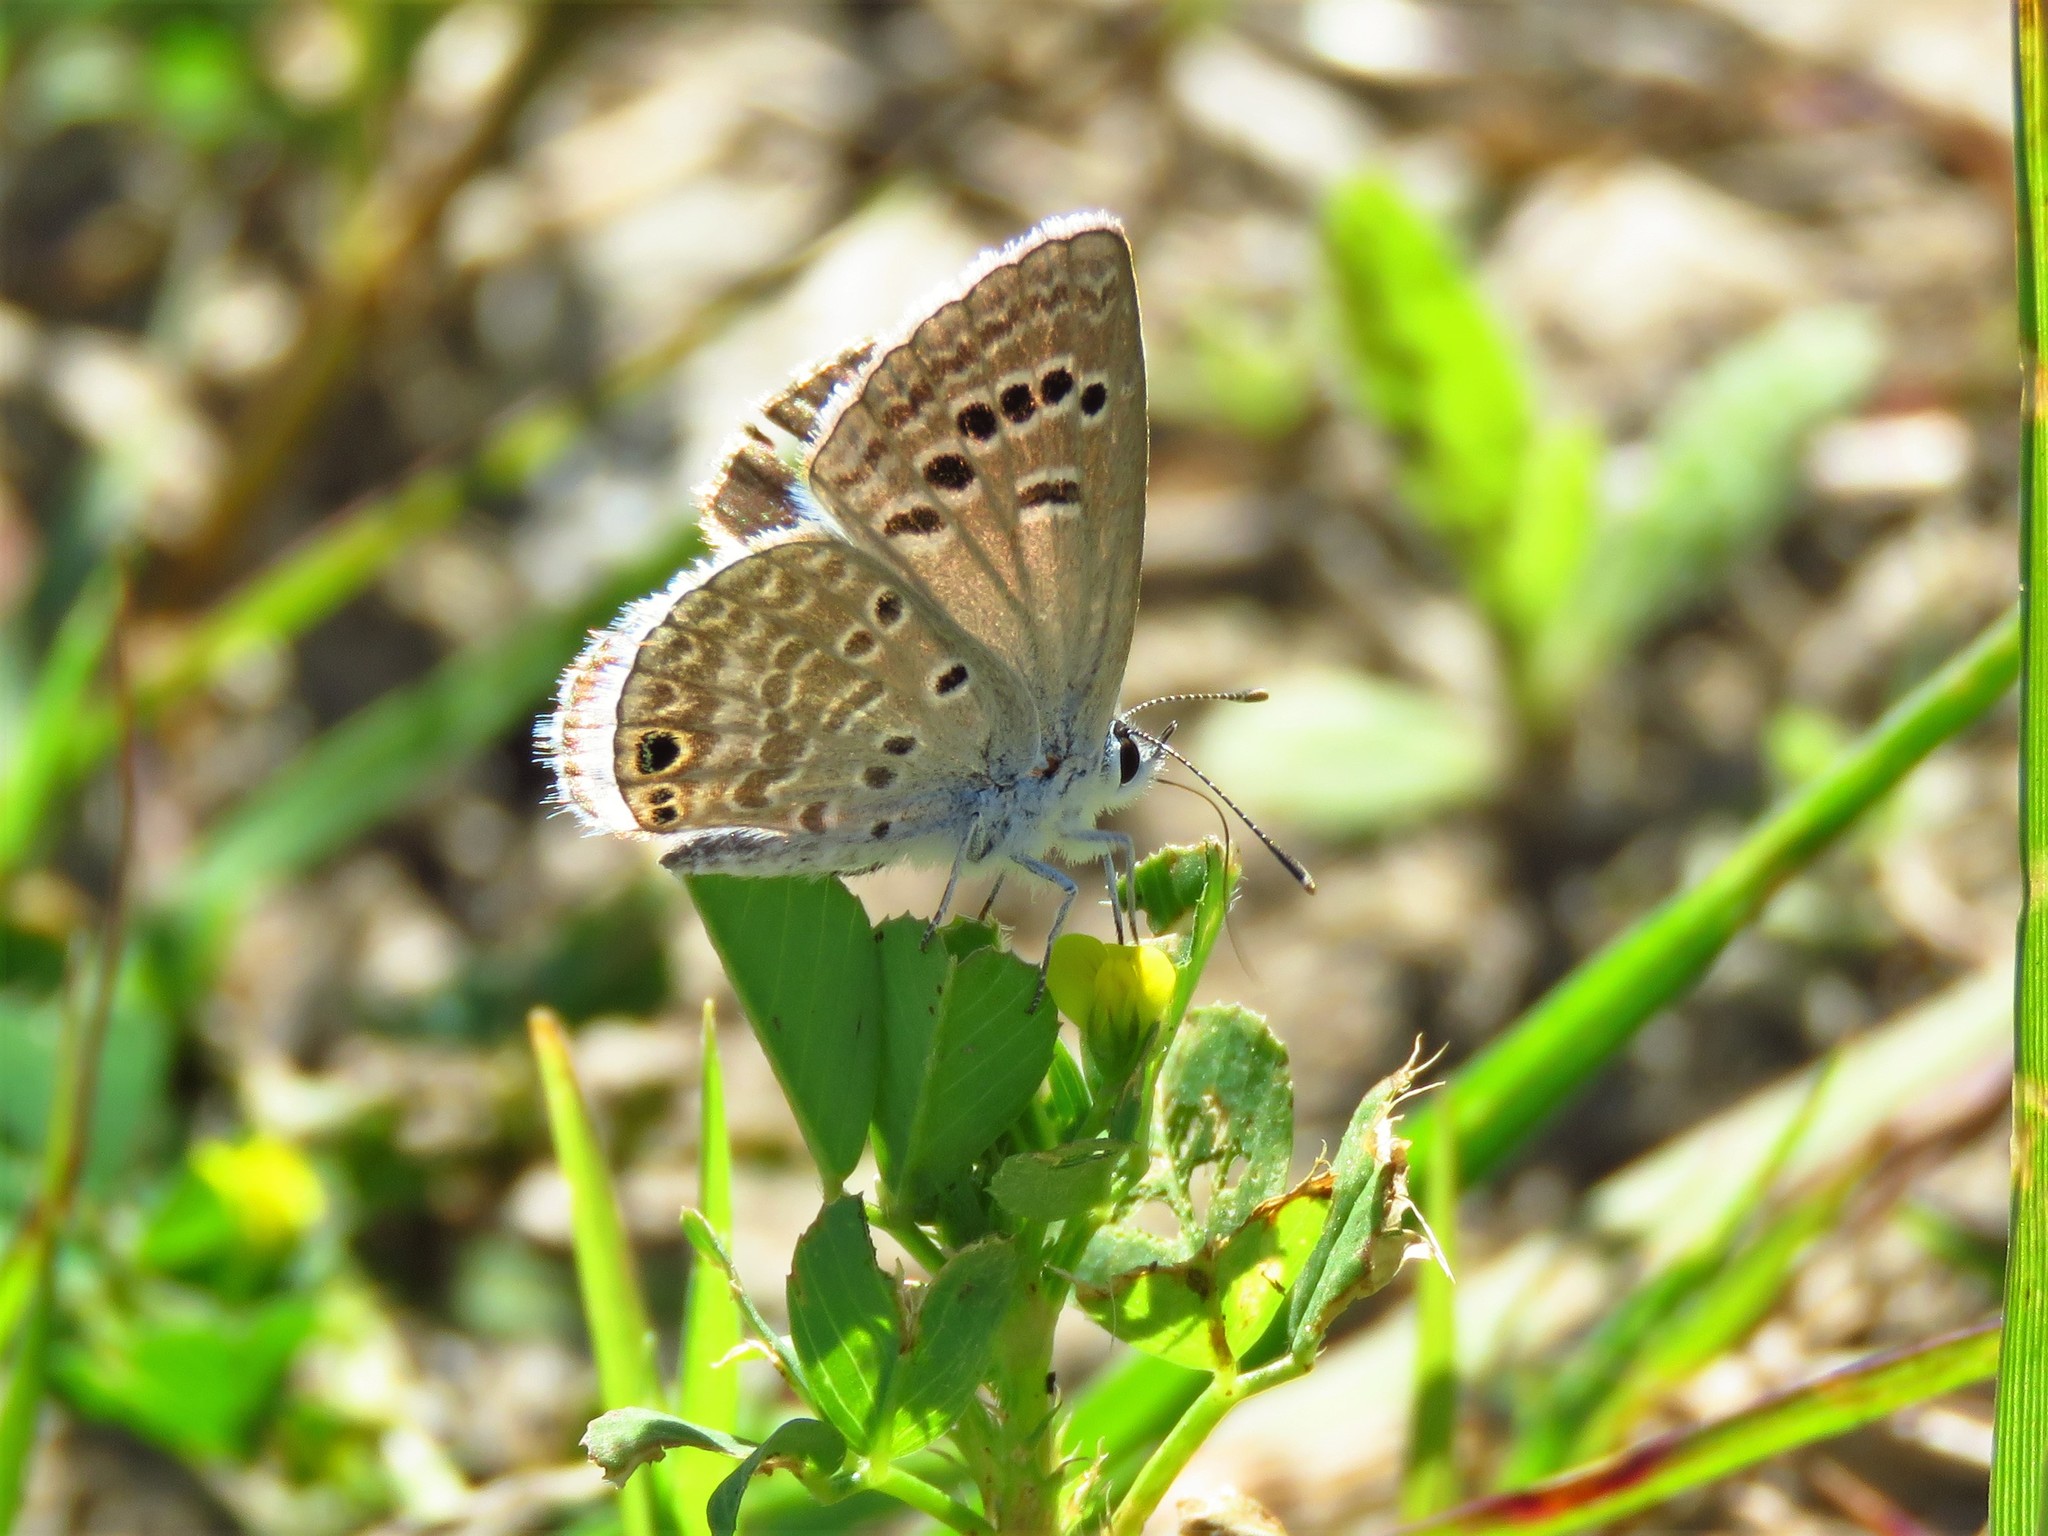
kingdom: Animalia
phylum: Arthropoda
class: Insecta
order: Lepidoptera
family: Lycaenidae
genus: Echinargus
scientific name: Echinargus isola
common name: Reakirt's blue
